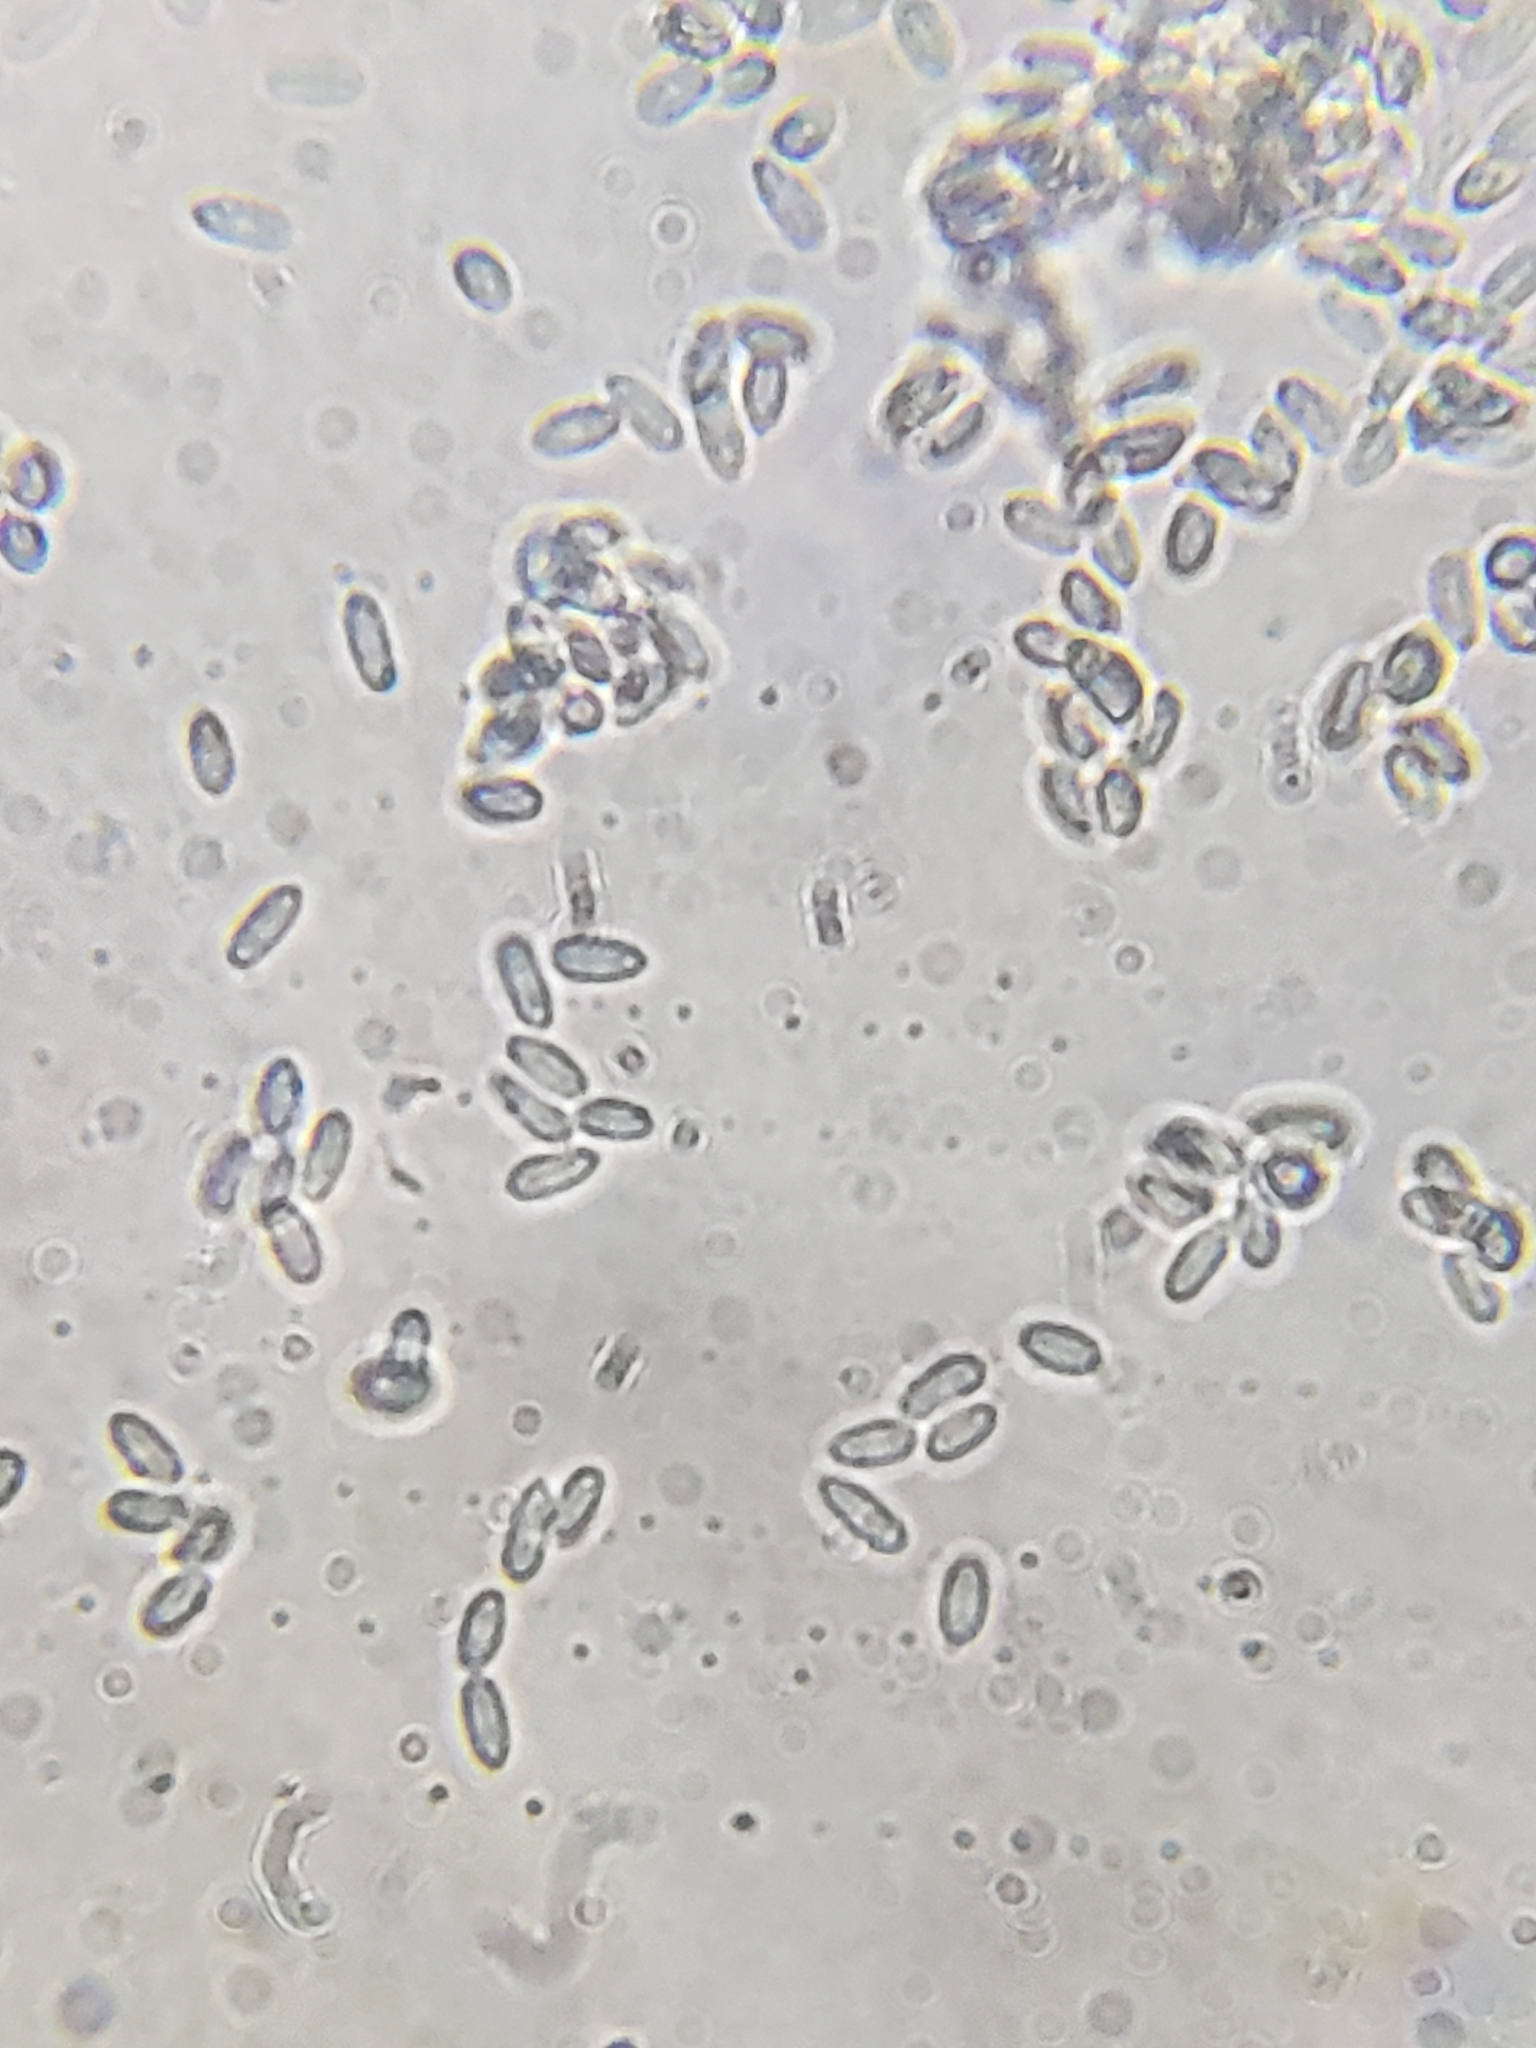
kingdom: Fungi
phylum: Ascomycota
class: Sordariomycetes
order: Hypocreales
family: Cordycipitaceae
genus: Gibellula
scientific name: Gibellula arachnophila
